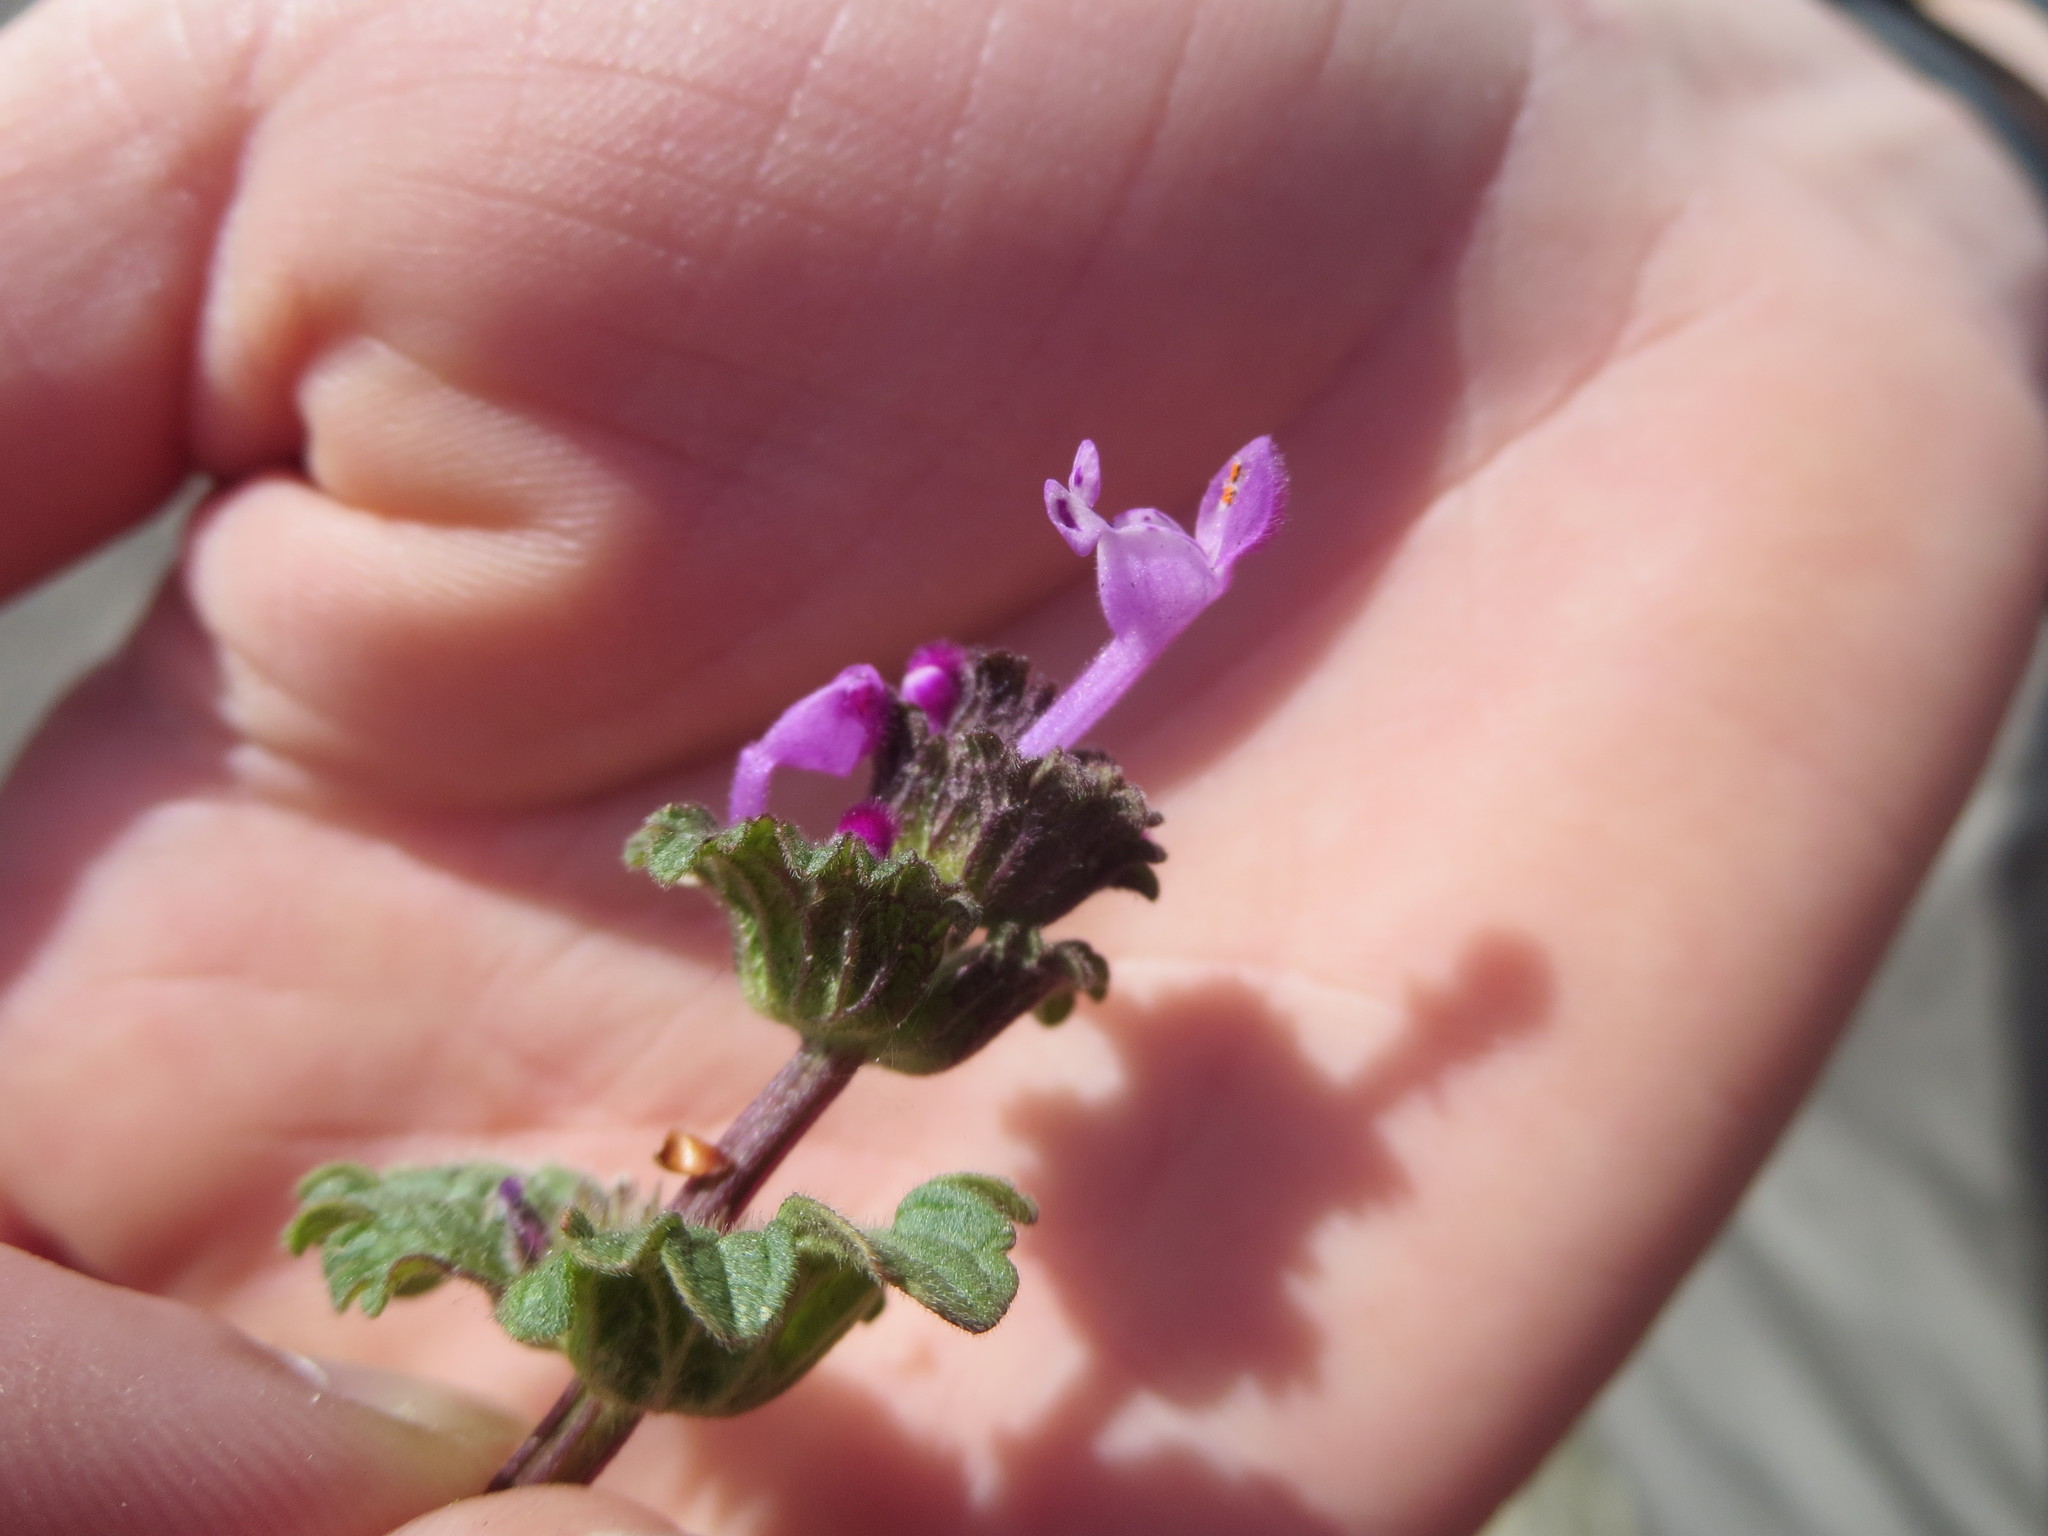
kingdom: Plantae
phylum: Tracheophyta
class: Magnoliopsida
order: Lamiales
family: Lamiaceae
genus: Lamium
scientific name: Lamium amplexicaule
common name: Henbit dead-nettle
